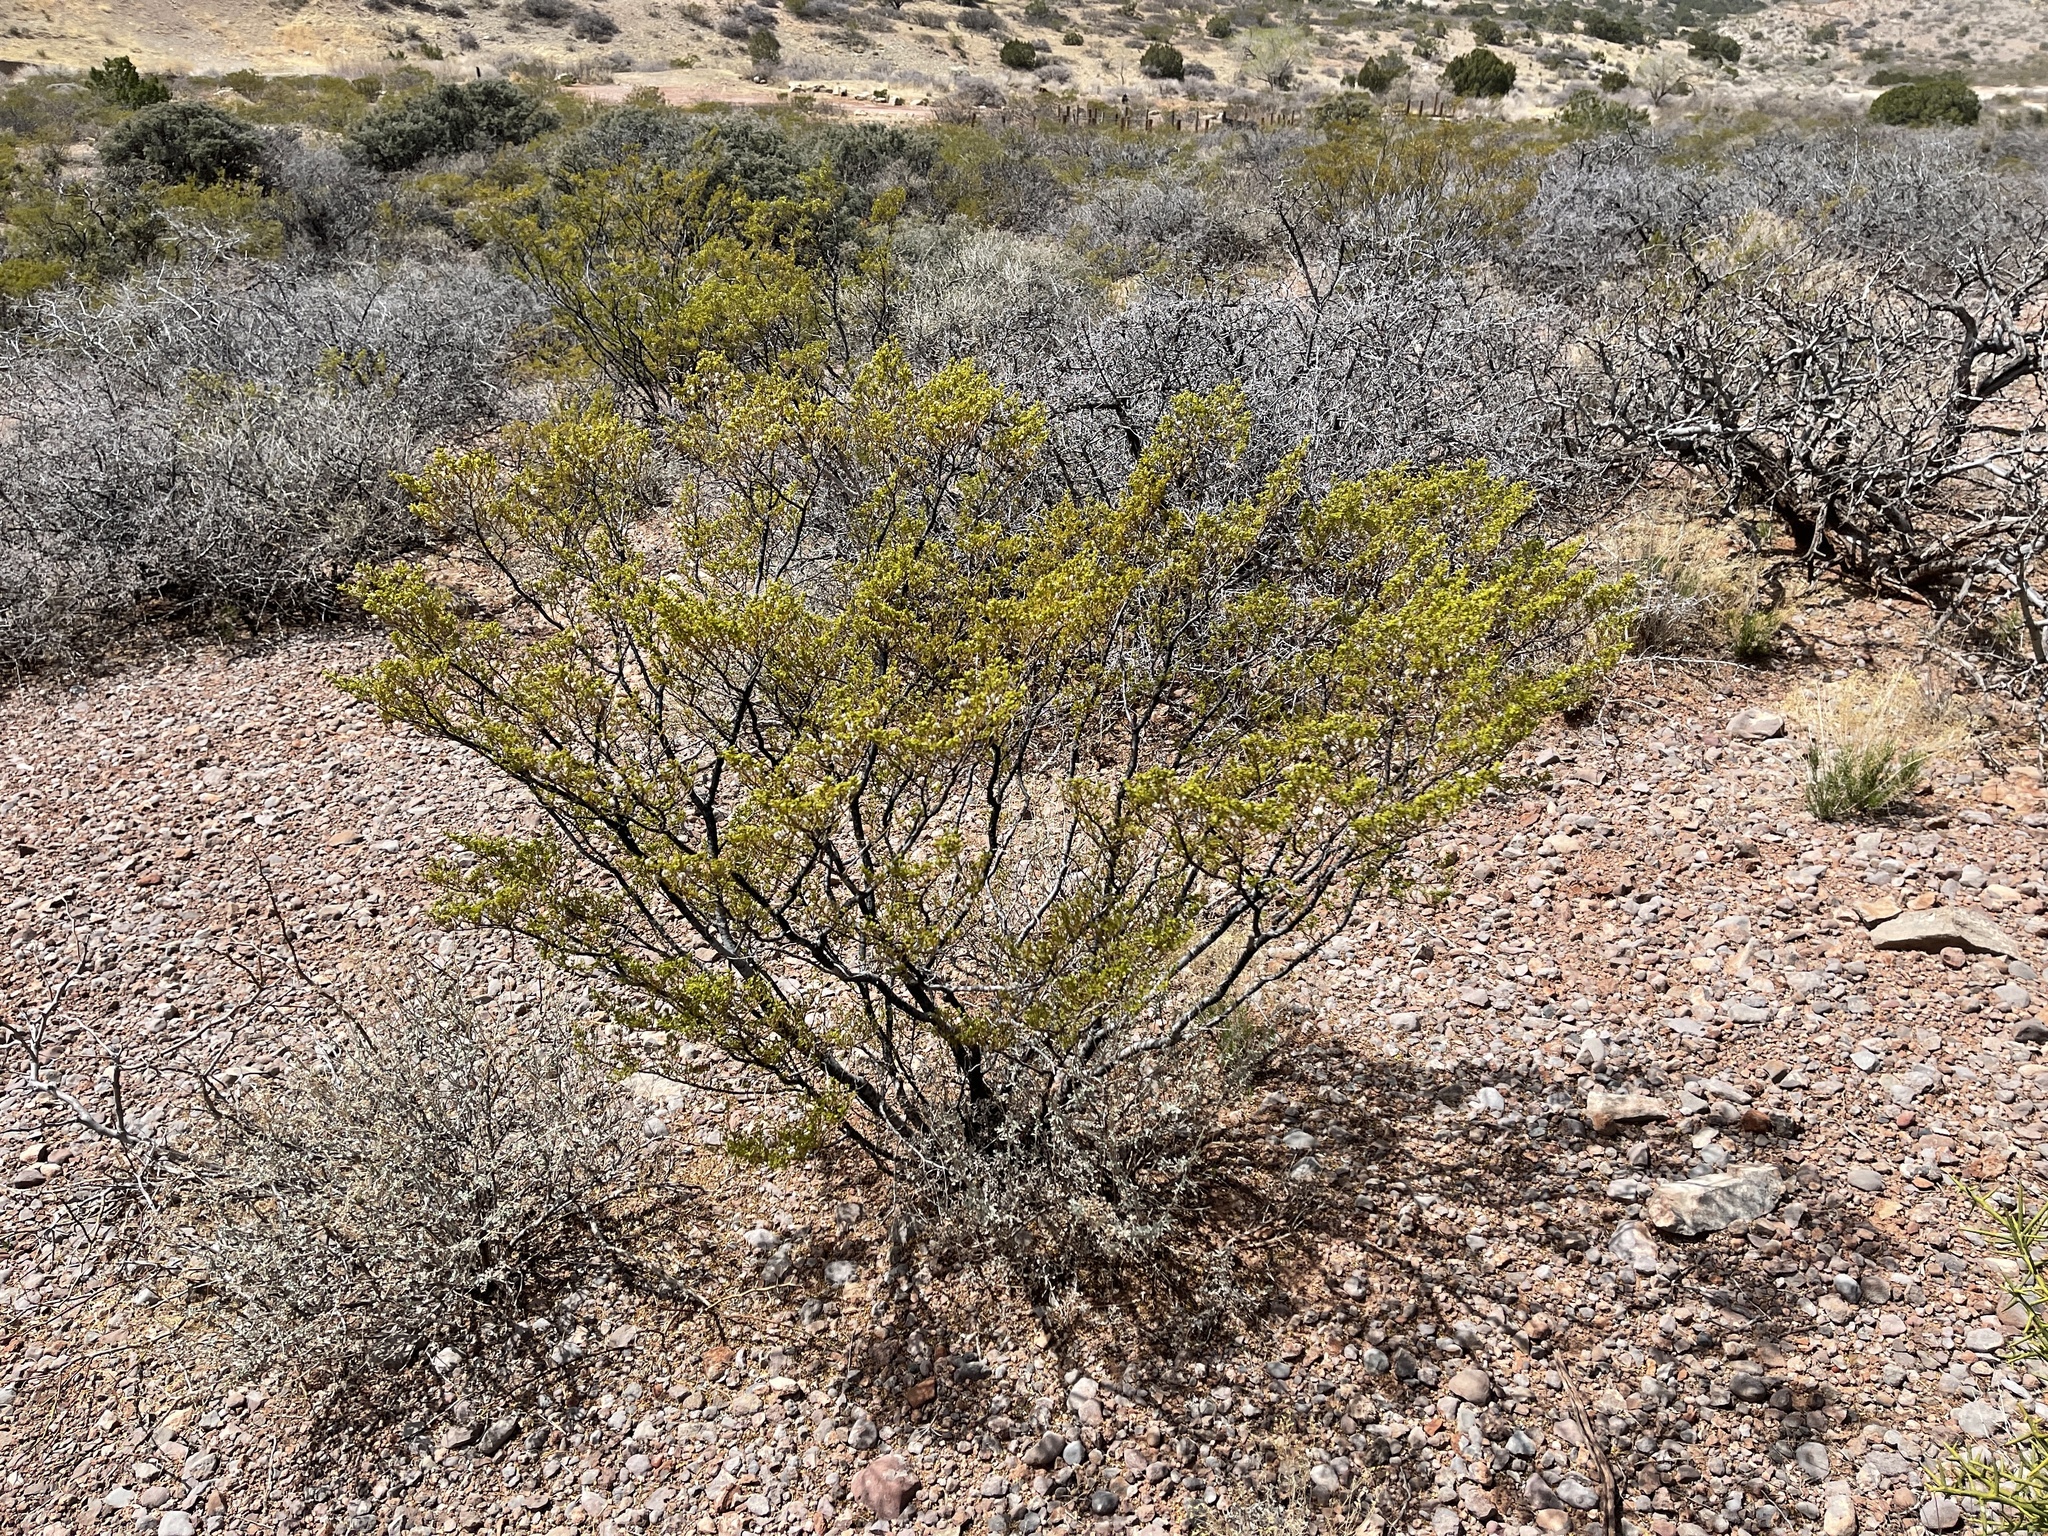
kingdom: Plantae
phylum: Tracheophyta
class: Magnoliopsida
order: Zygophyllales
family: Zygophyllaceae
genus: Larrea
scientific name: Larrea tridentata
